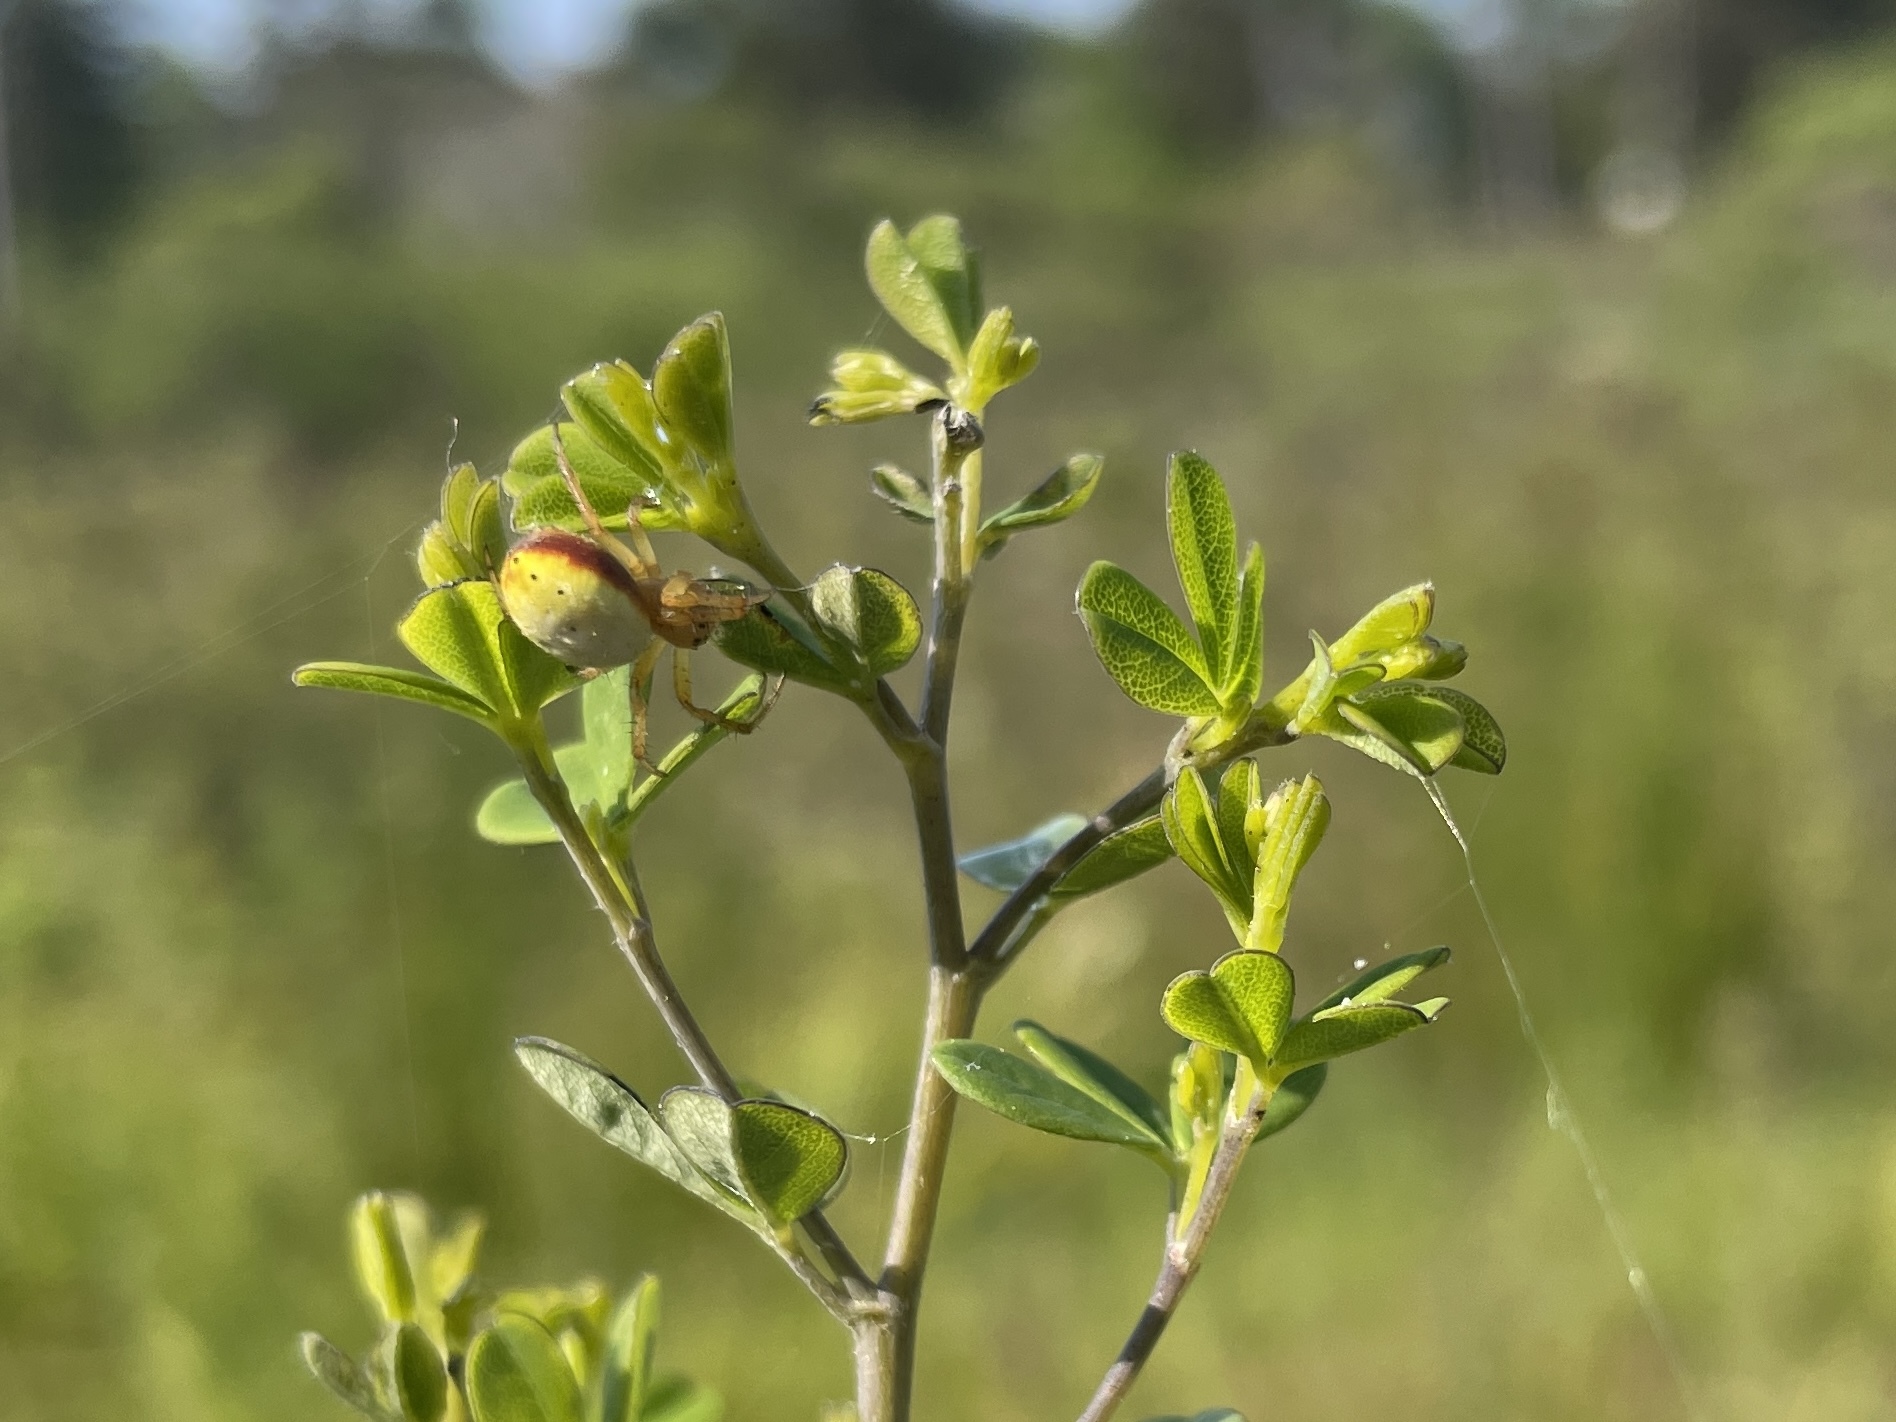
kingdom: Animalia
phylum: Arthropoda
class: Arachnida
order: Araneae
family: Araneidae
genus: Araniella
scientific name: Araniella displicata
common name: Sixspotted orb weaver
